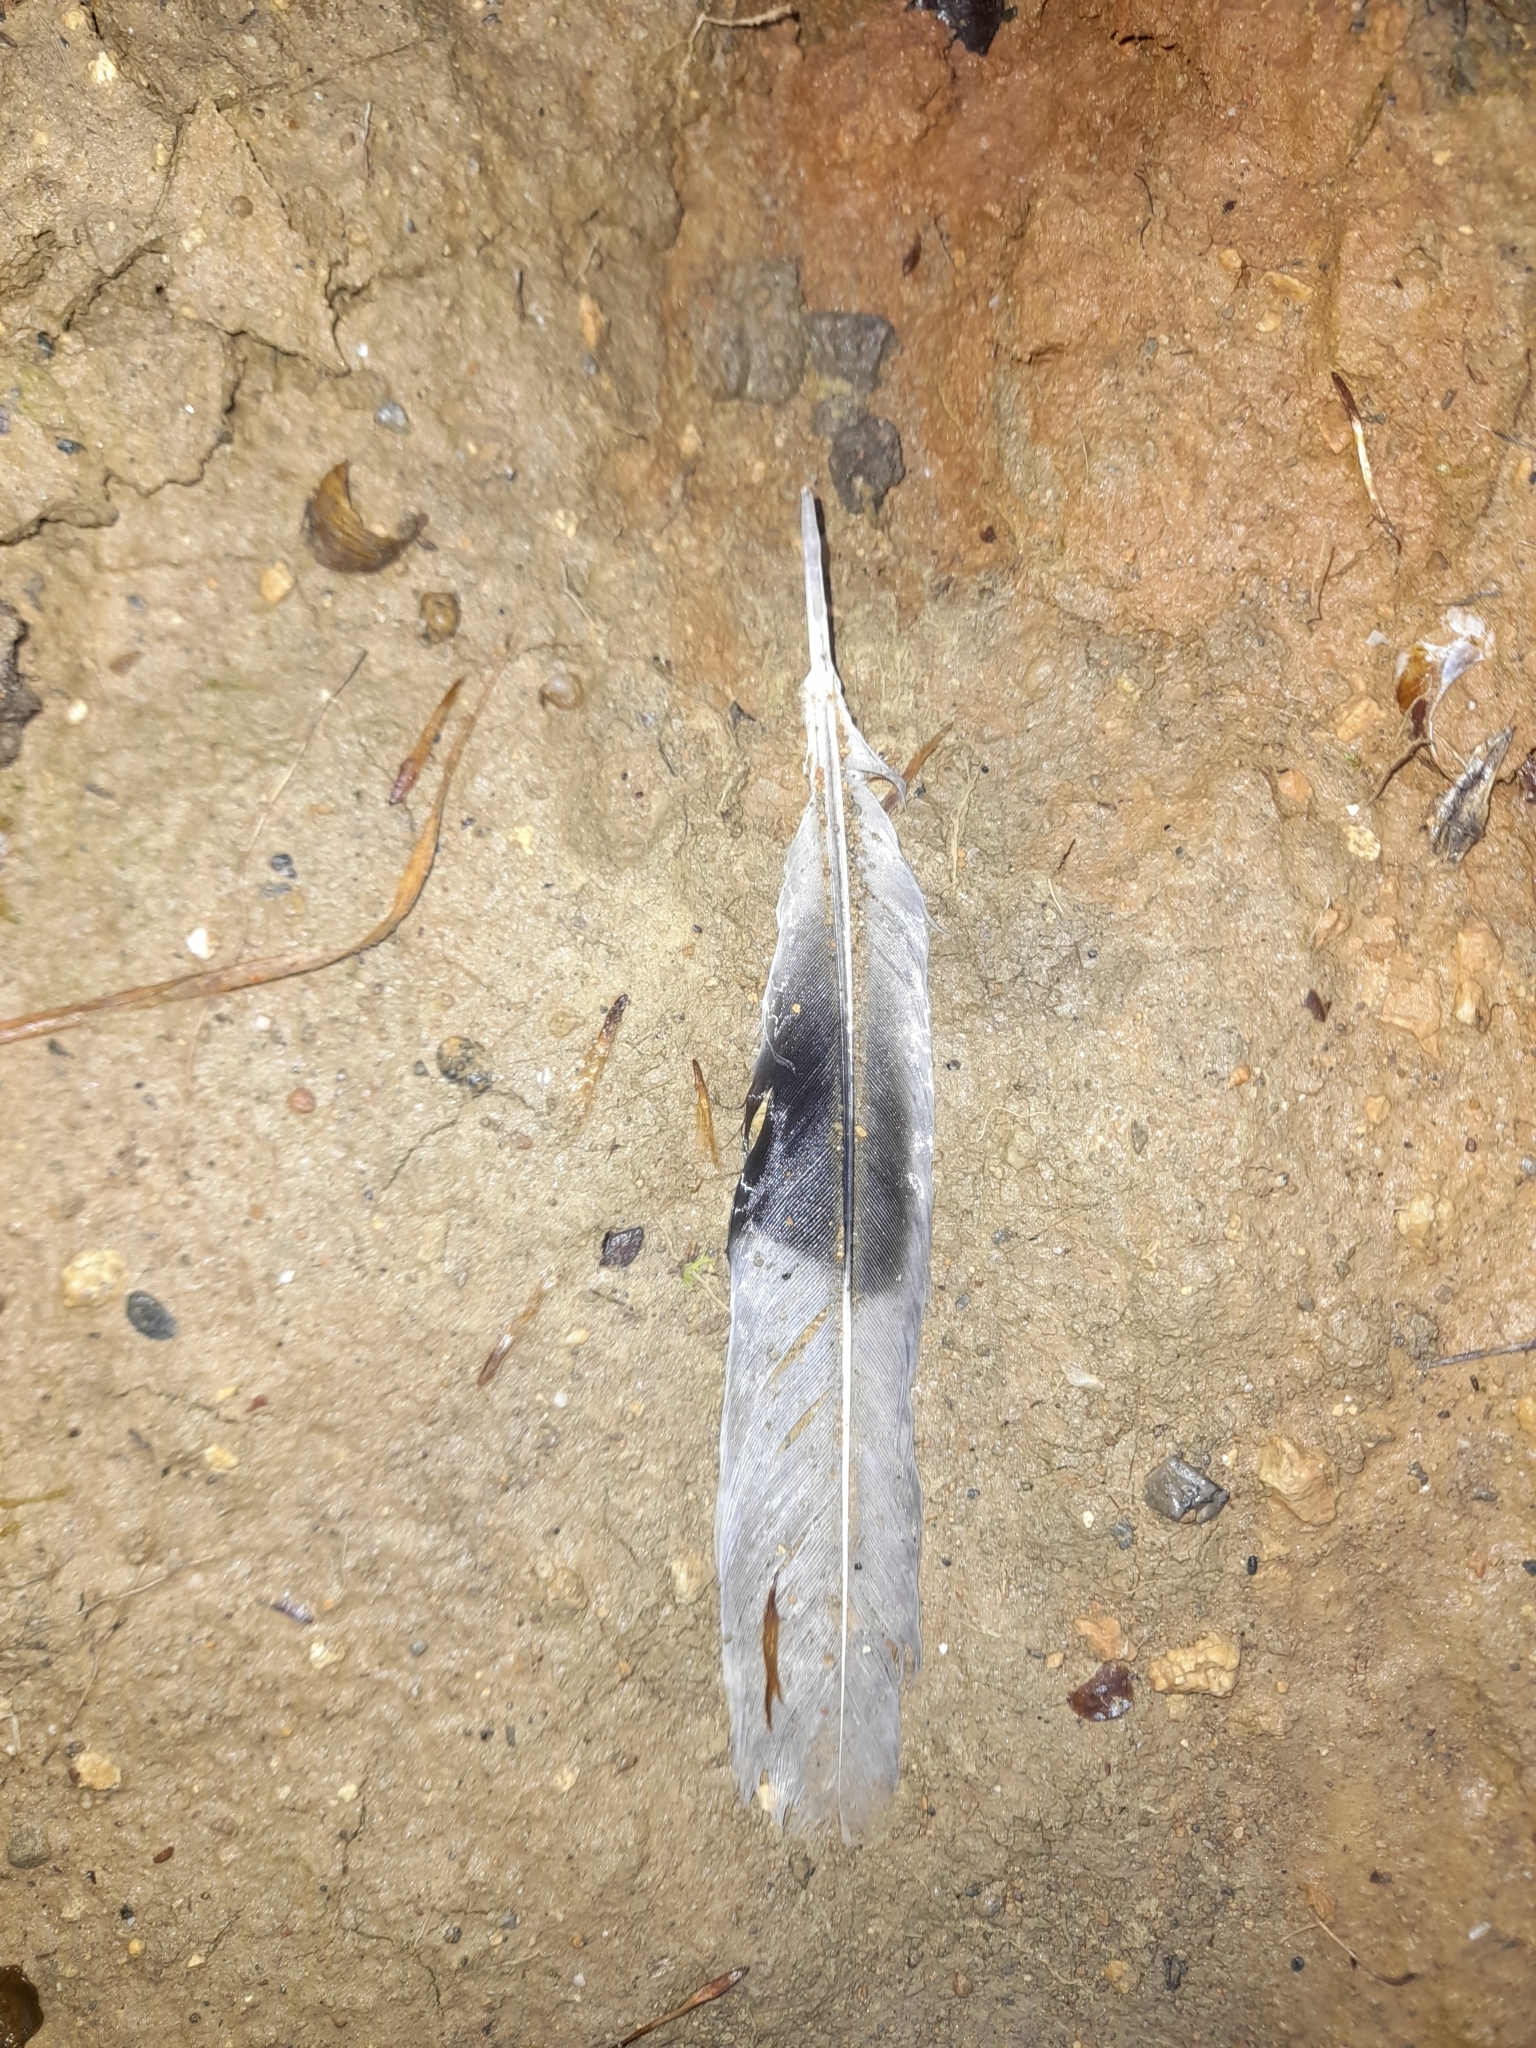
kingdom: Animalia
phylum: Chordata
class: Aves
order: Columbiformes
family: Columbidae
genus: Streptopelia
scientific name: Streptopelia decaocto
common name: Eurasian collared dove
